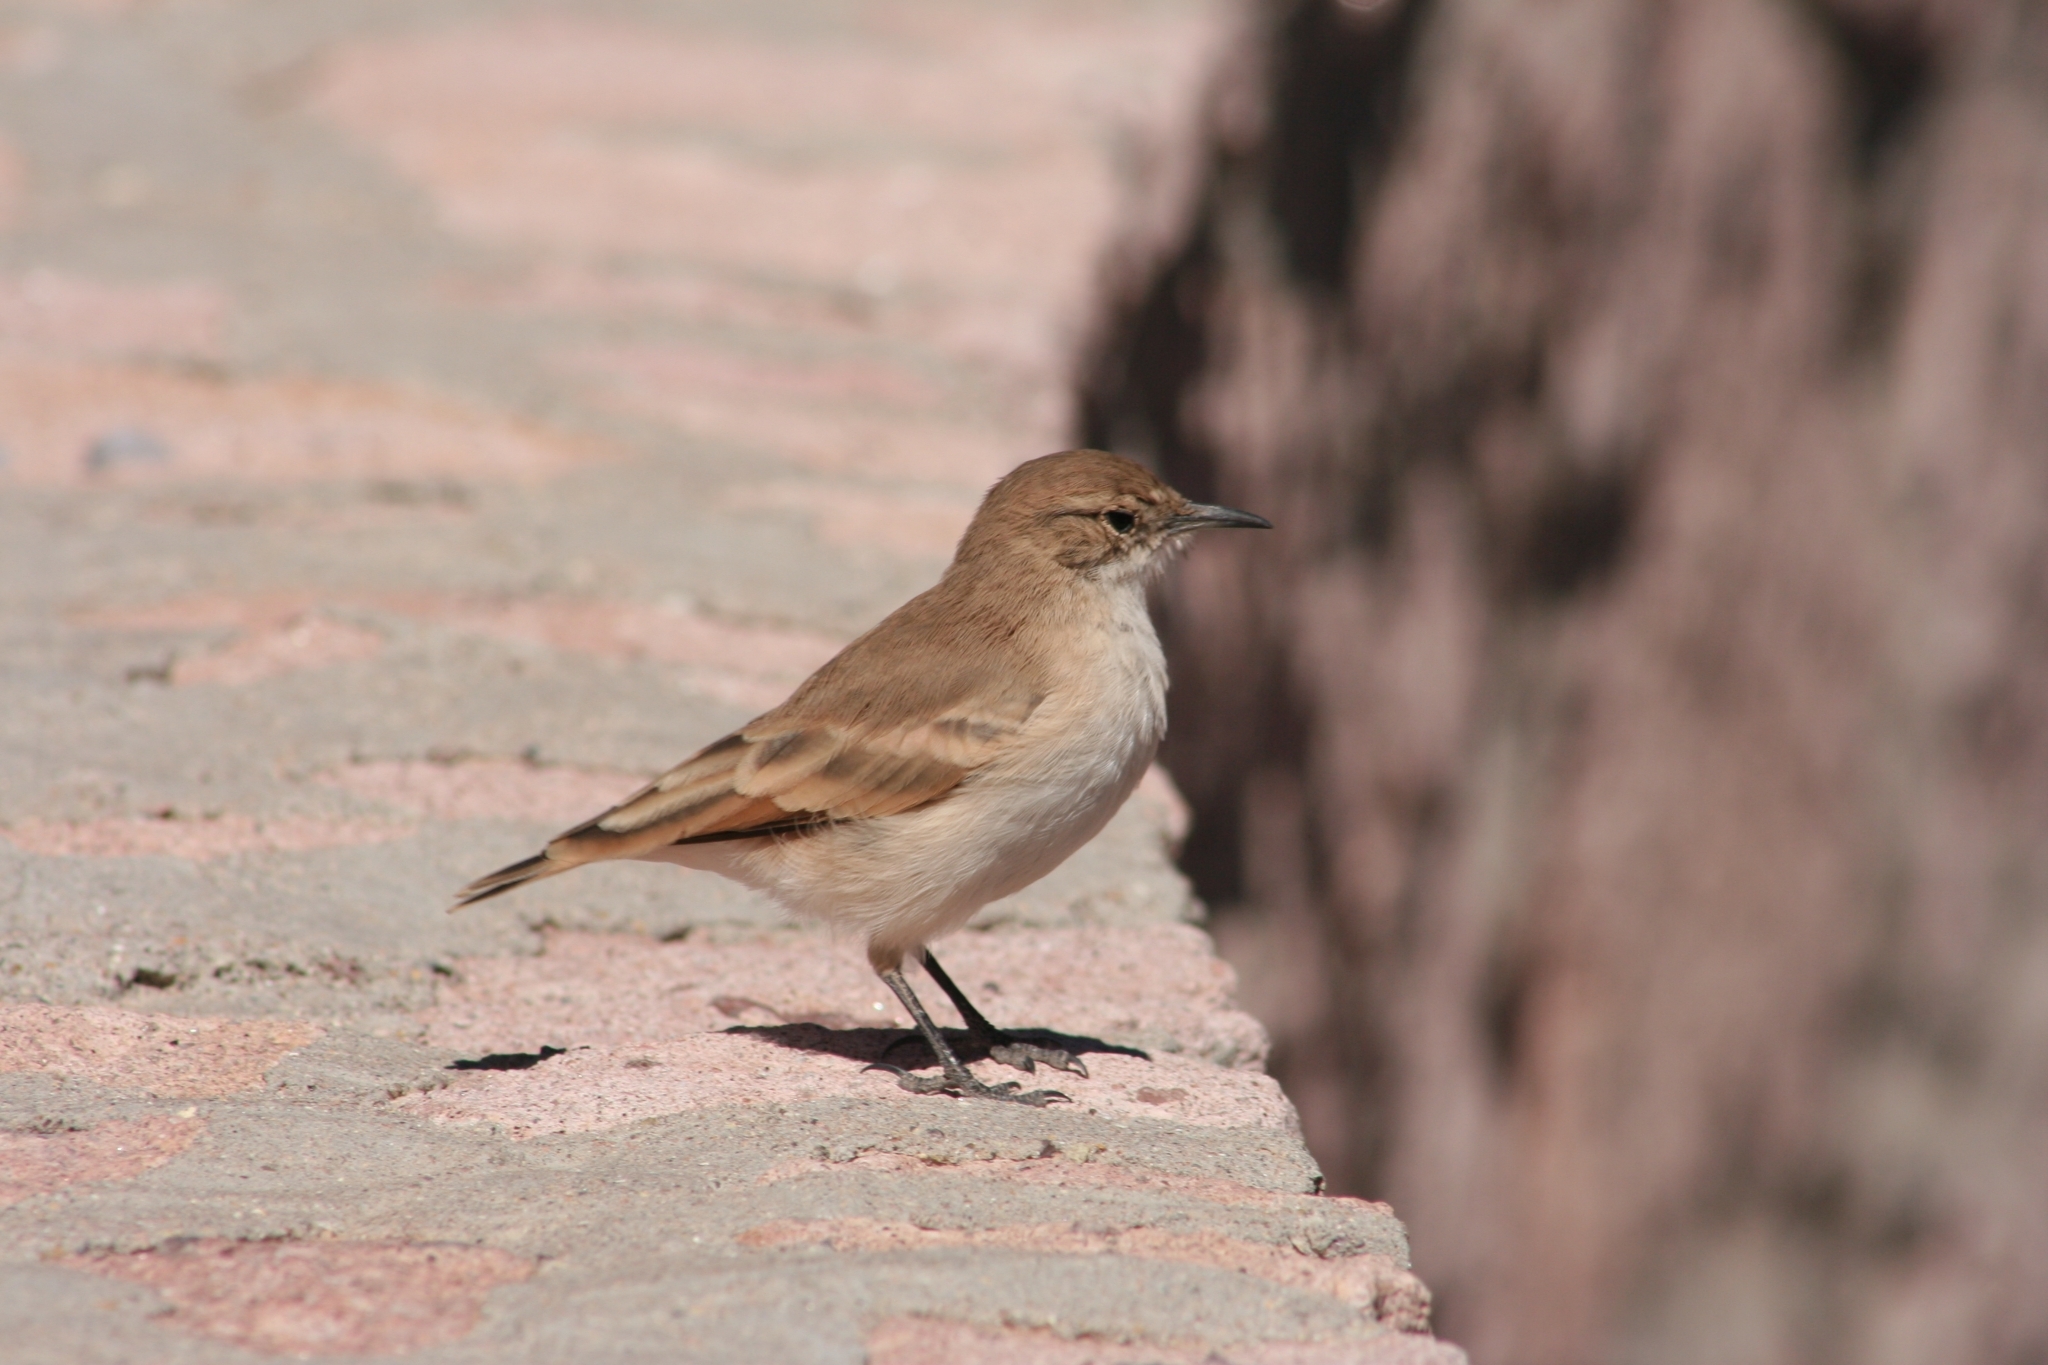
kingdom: Animalia
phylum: Chordata
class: Aves
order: Passeriformes
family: Furnariidae
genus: Geositta
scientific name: Geositta rufipennis
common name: Rufous-banded miner
